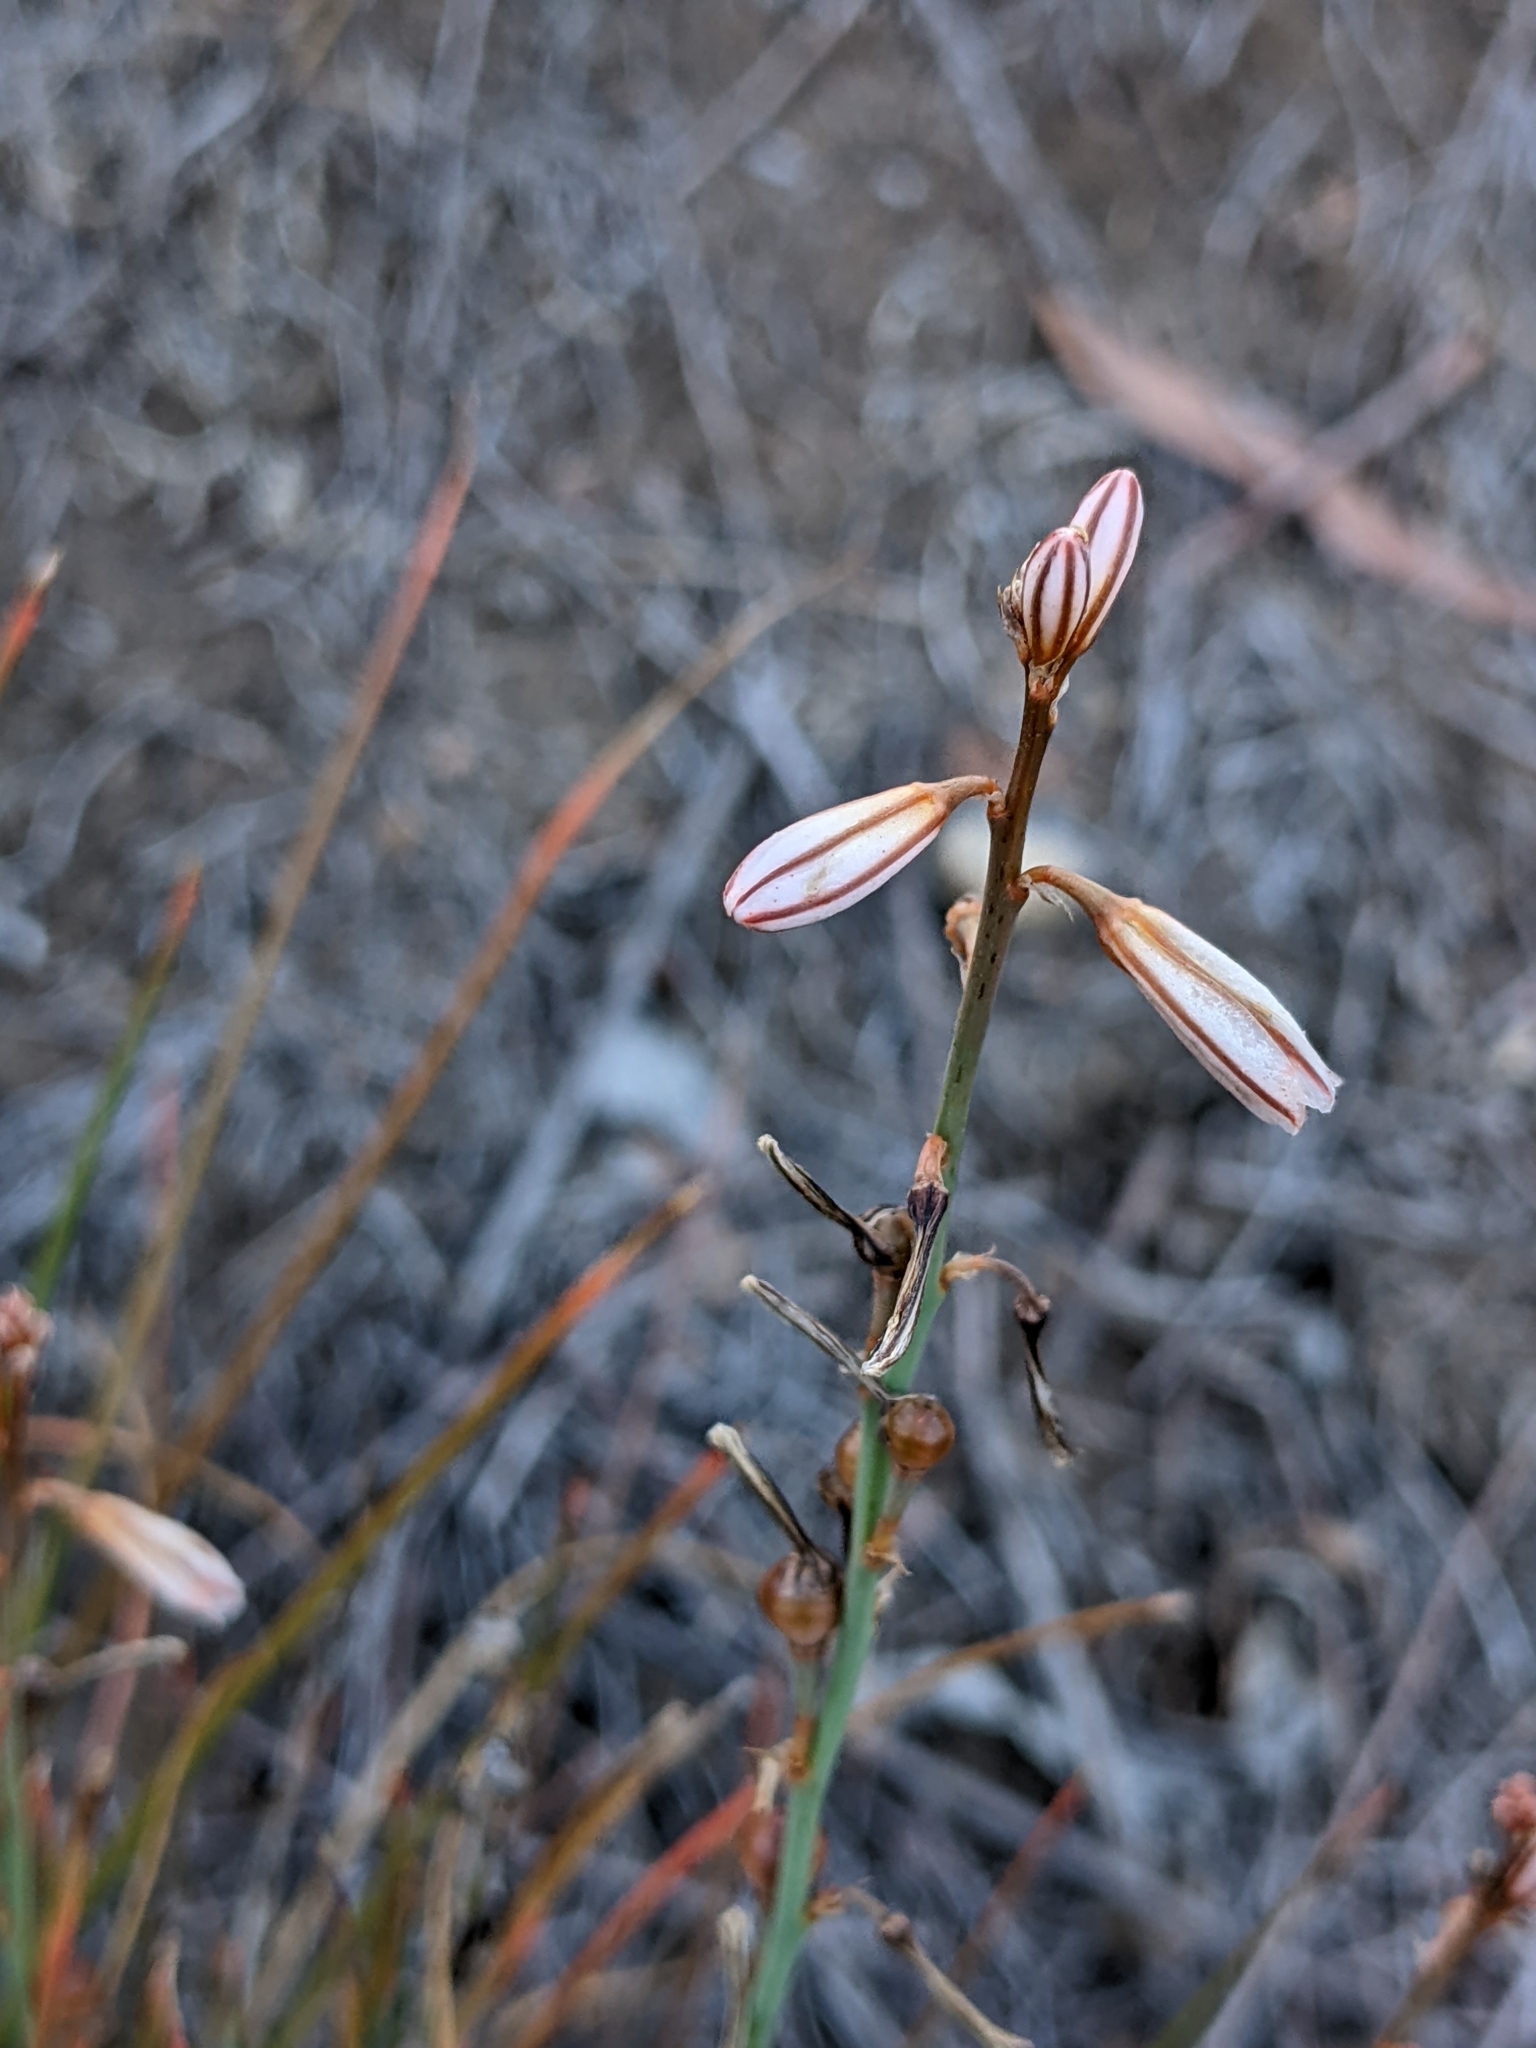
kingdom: Plantae
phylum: Tracheophyta
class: Liliopsida
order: Asparagales
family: Asphodelaceae
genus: Asphodelus
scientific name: Asphodelus fistulosus
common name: Onionweed
